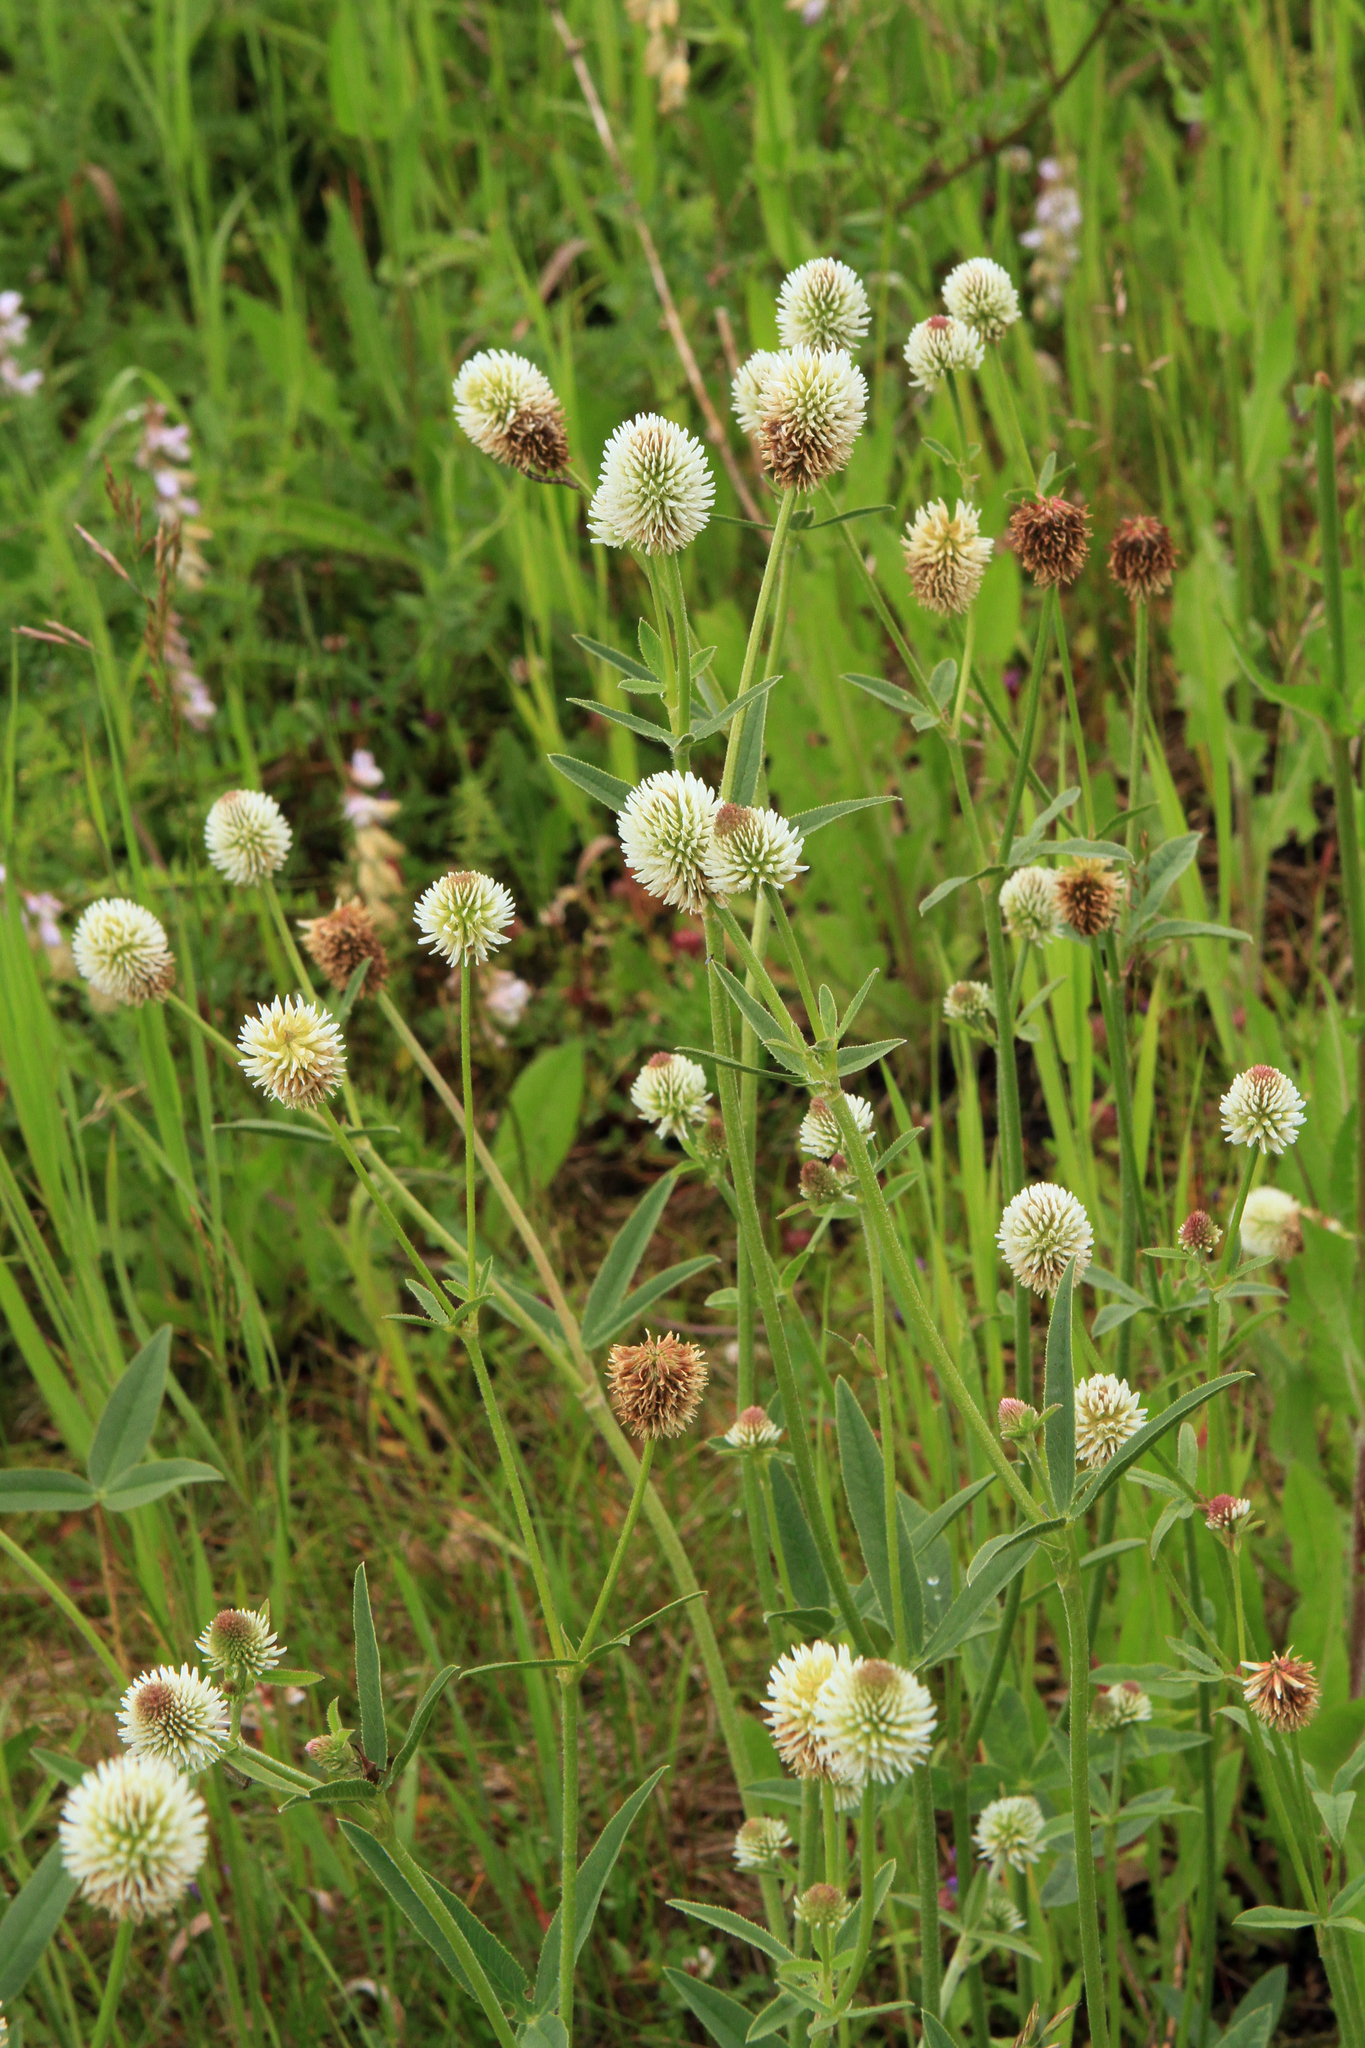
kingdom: Plantae
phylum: Tracheophyta
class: Magnoliopsida
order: Fabales
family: Fabaceae
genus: Trifolium
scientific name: Trifolium montanum
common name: Mountain clover
